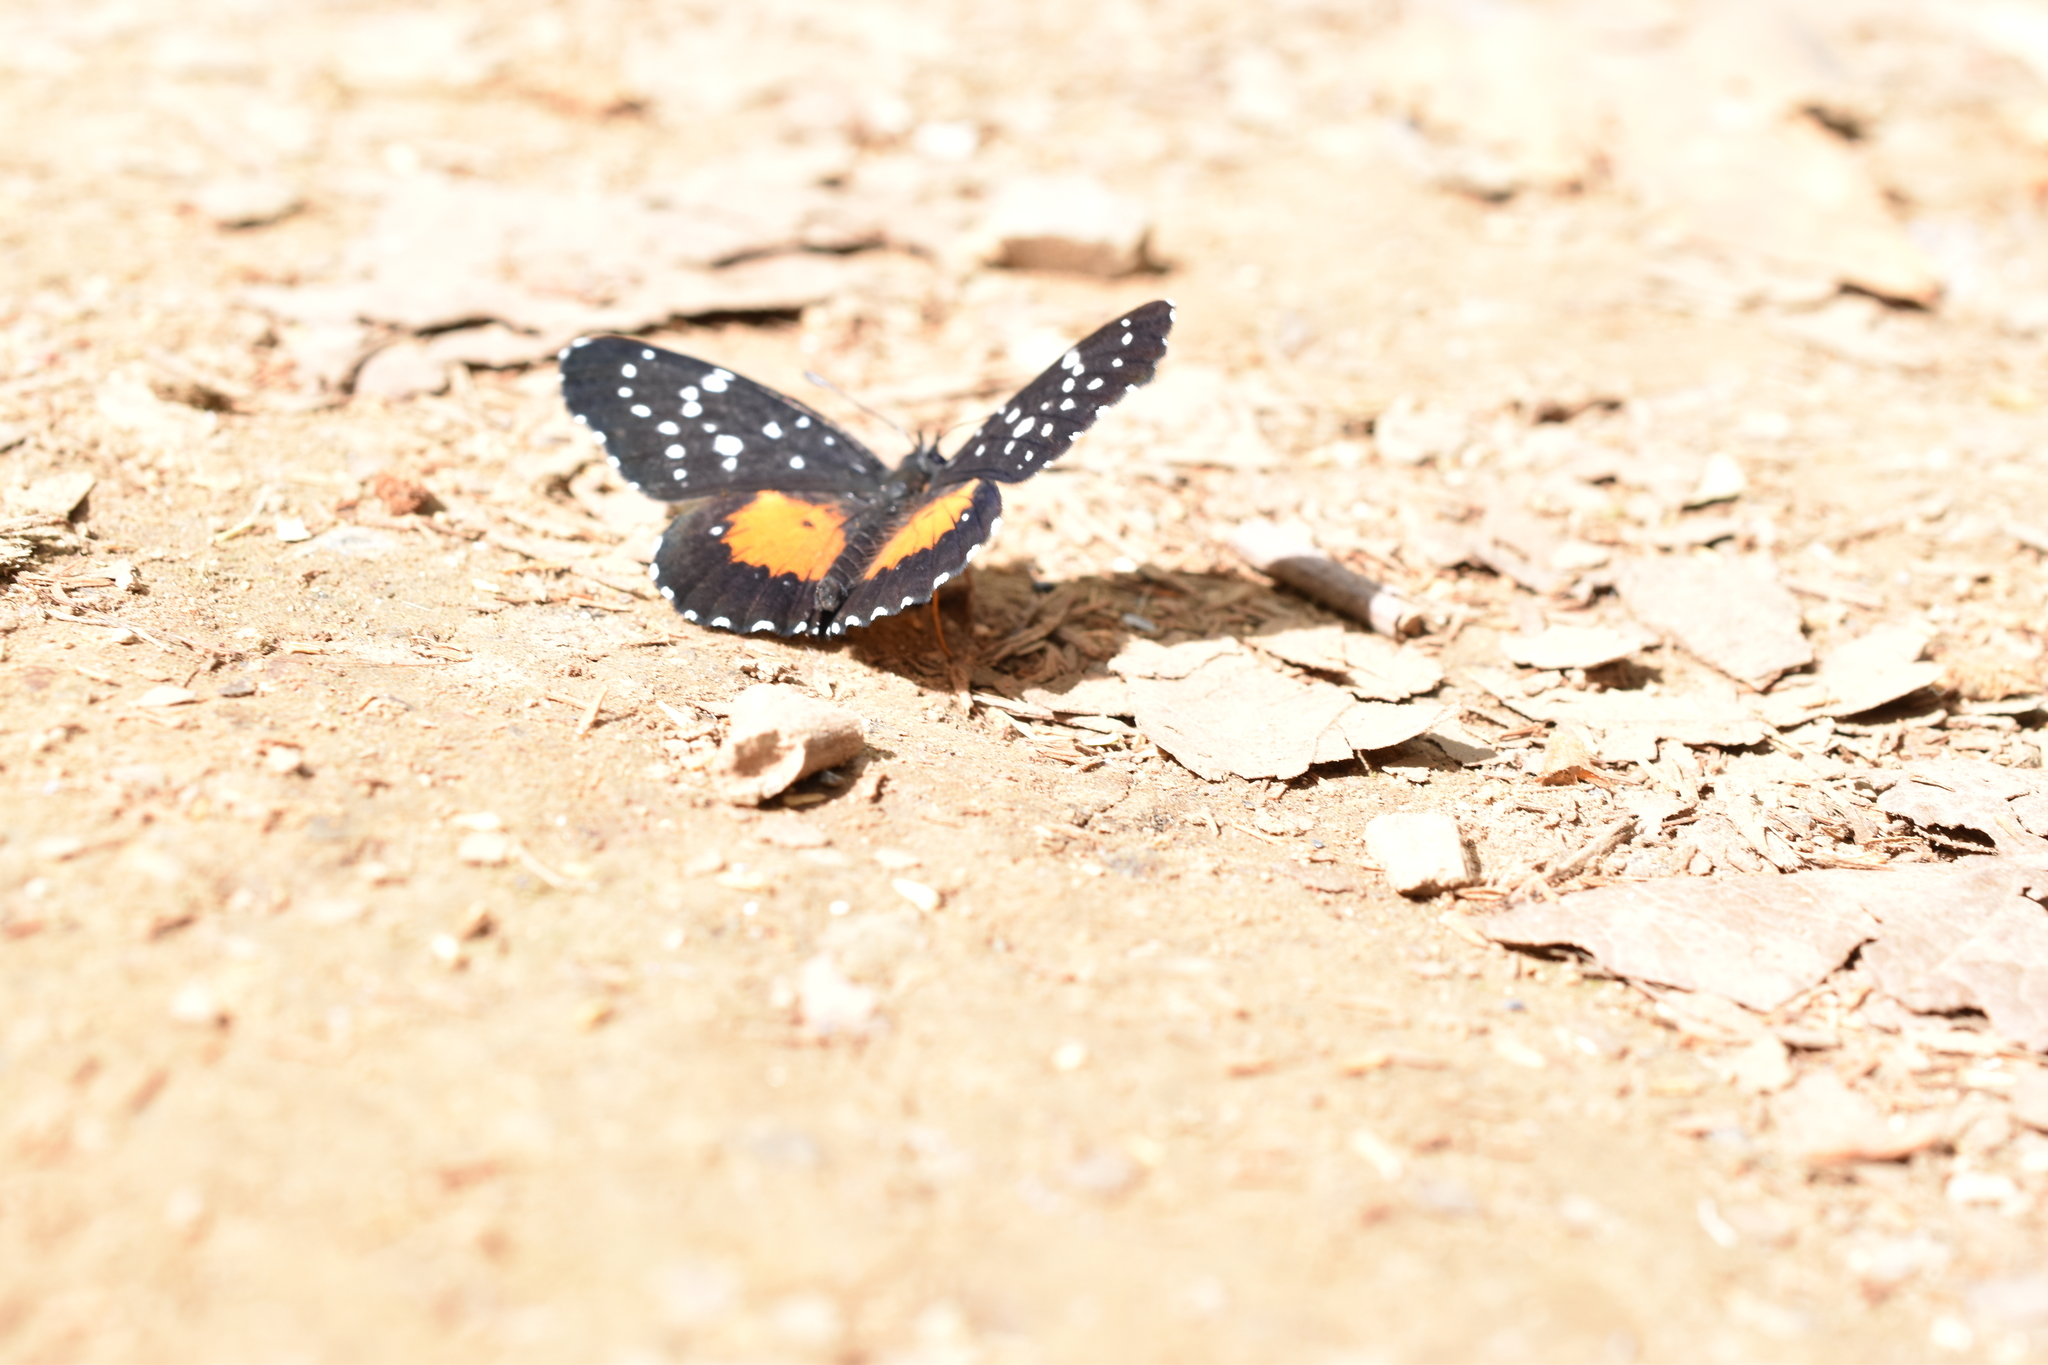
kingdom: Animalia
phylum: Arthropoda
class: Insecta
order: Lepidoptera
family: Nymphalidae
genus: Chlosyne
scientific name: Chlosyne janais
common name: Crimson patch
